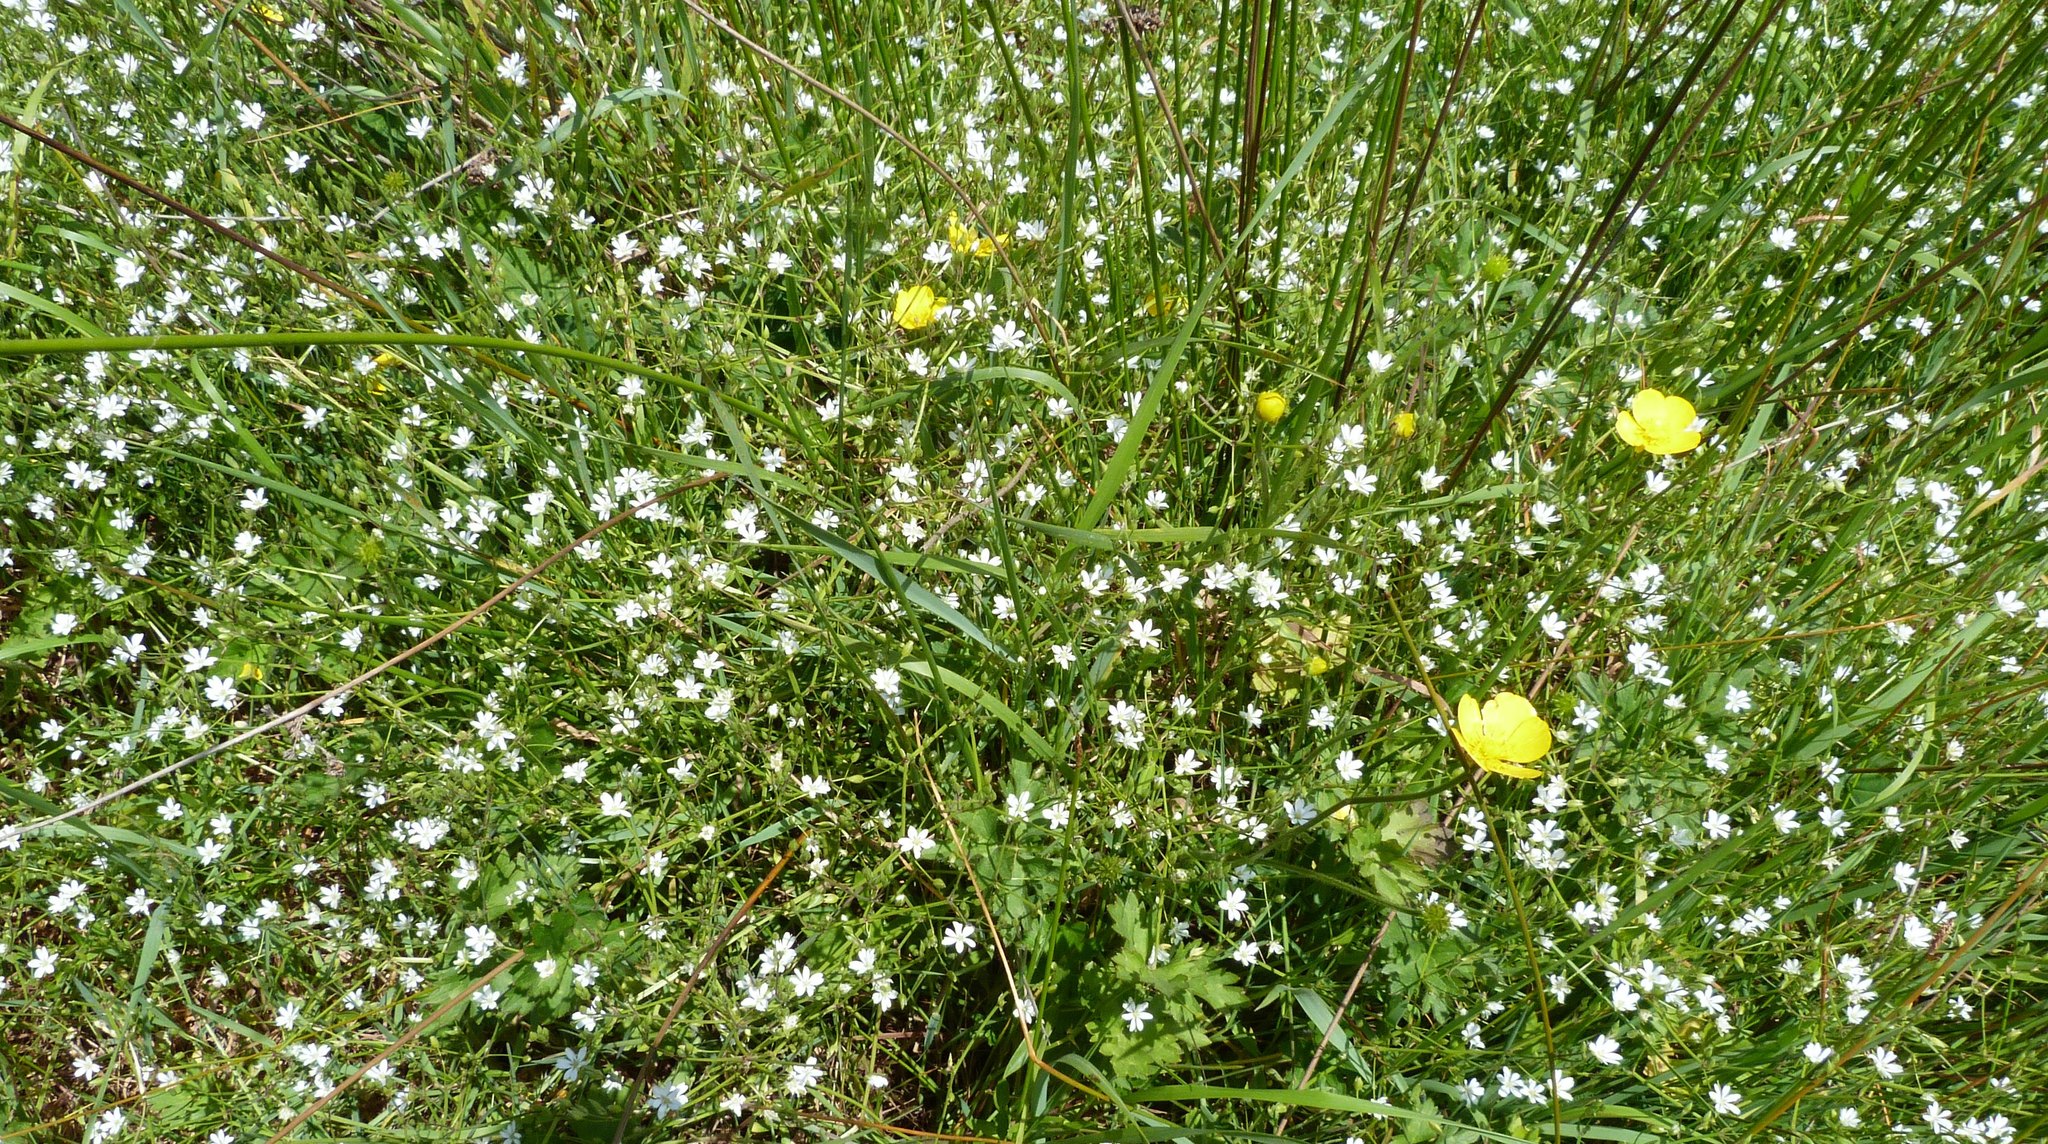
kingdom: Plantae
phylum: Tracheophyta
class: Magnoliopsida
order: Caryophyllales
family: Caryophyllaceae
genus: Stellaria
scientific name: Stellaria graminea
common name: Grass-like starwort
